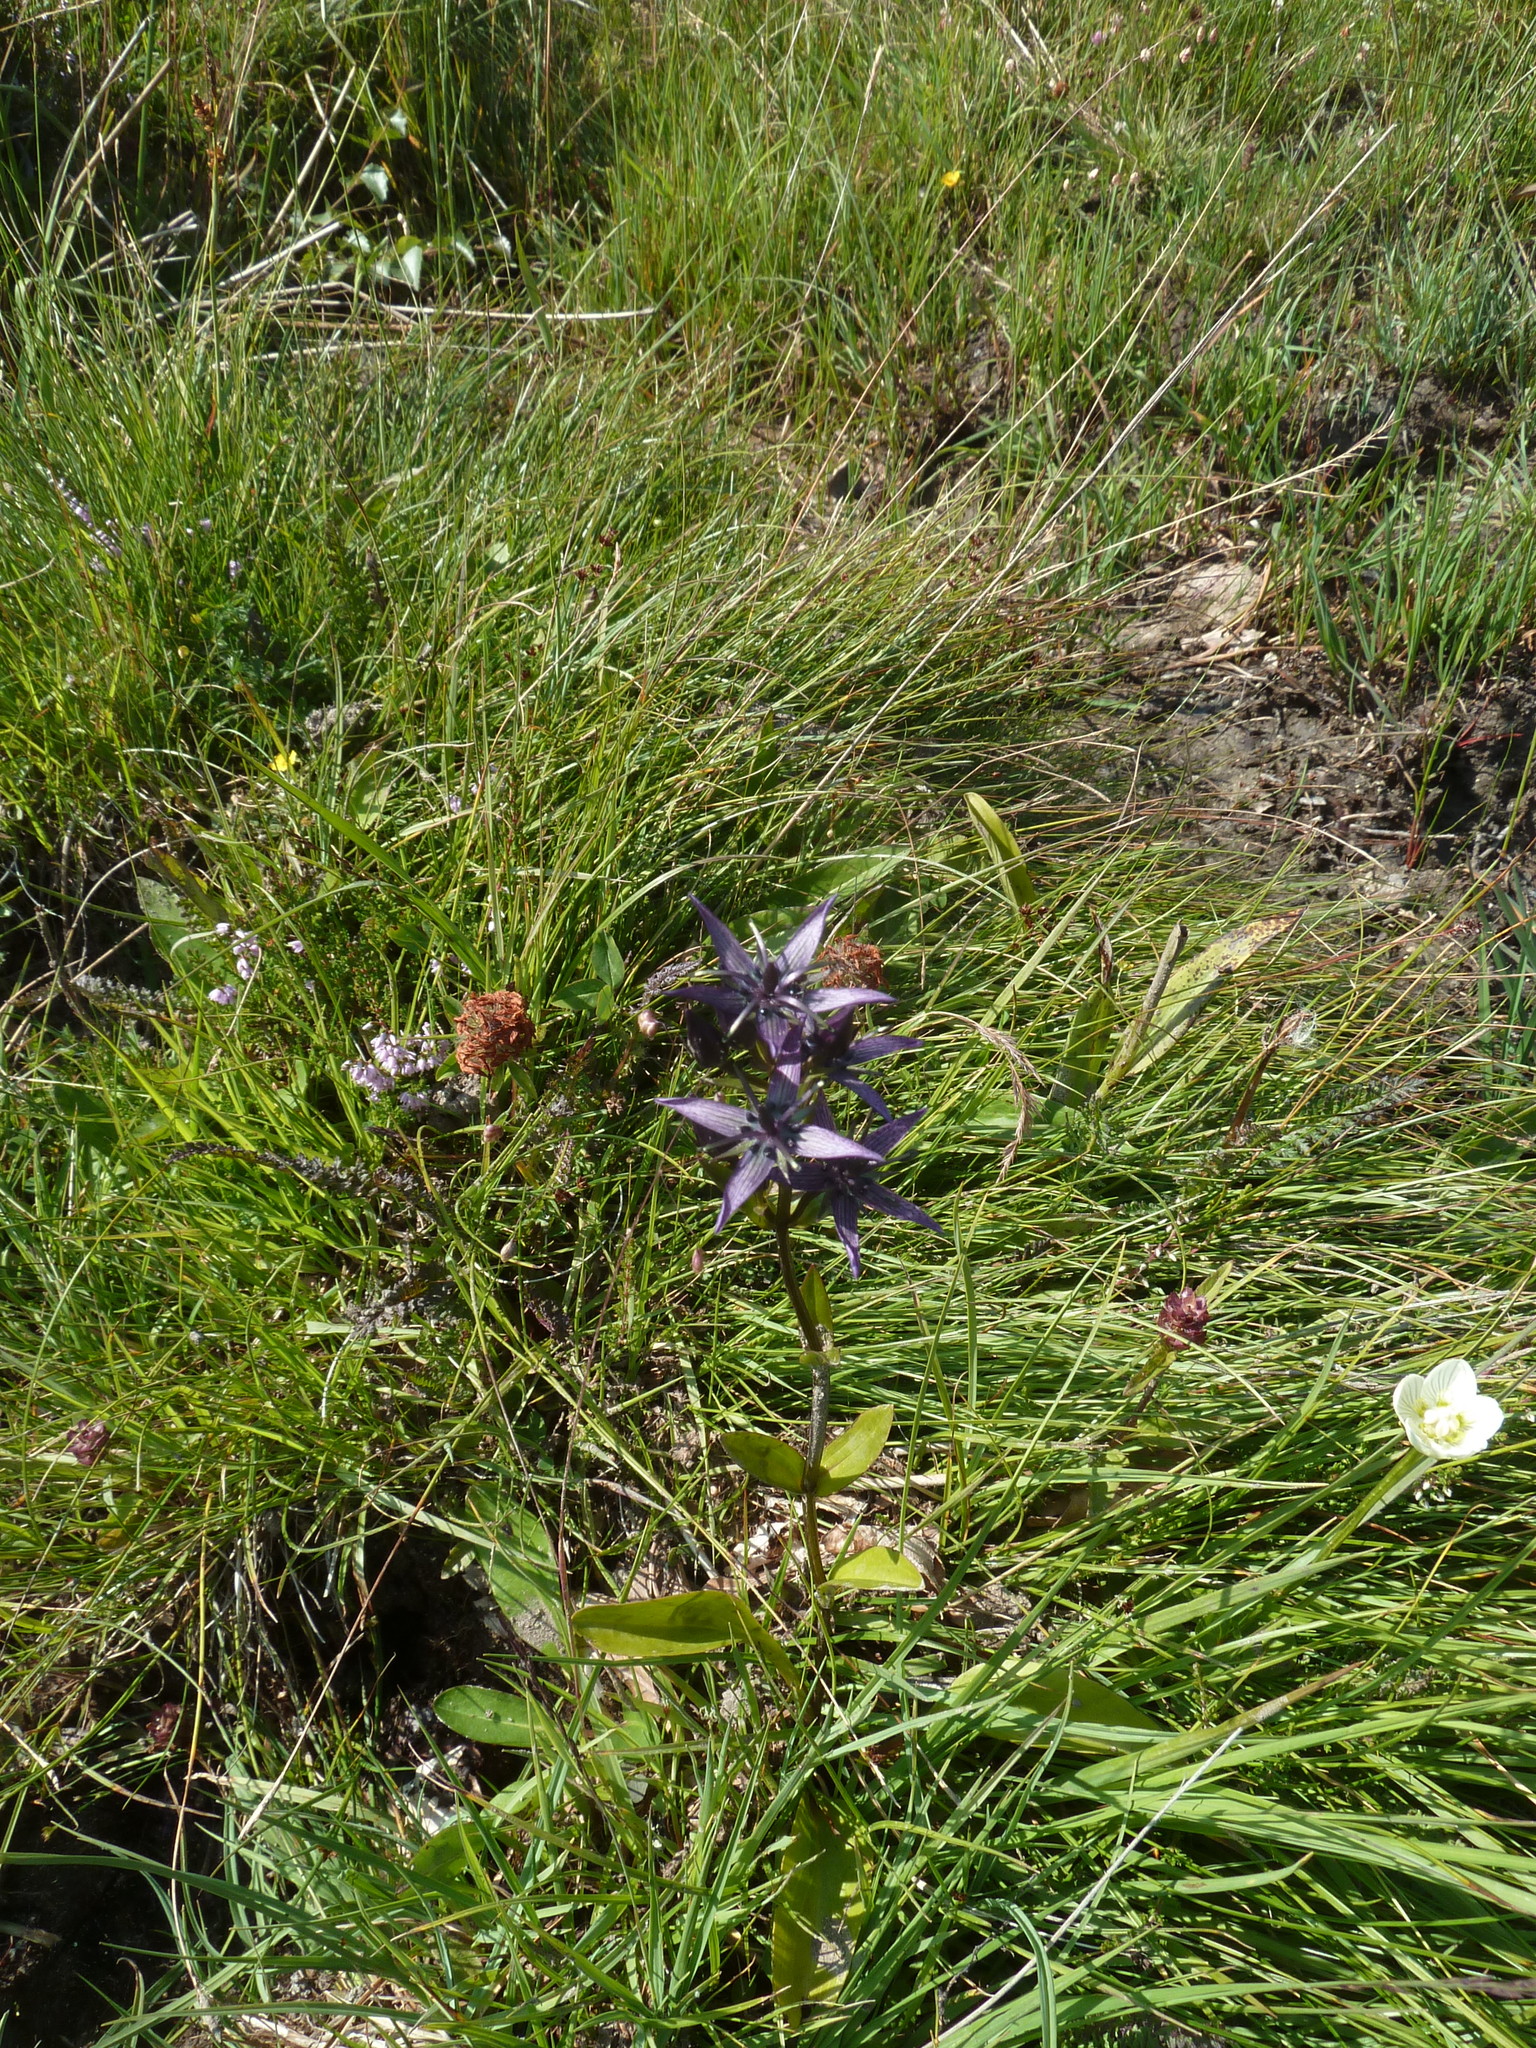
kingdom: Plantae
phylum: Tracheophyta
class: Magnoliopsida
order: Gentianales
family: Gentianaceae
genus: Swertia
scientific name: Swertia perennis
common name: Alpine bog swertia
